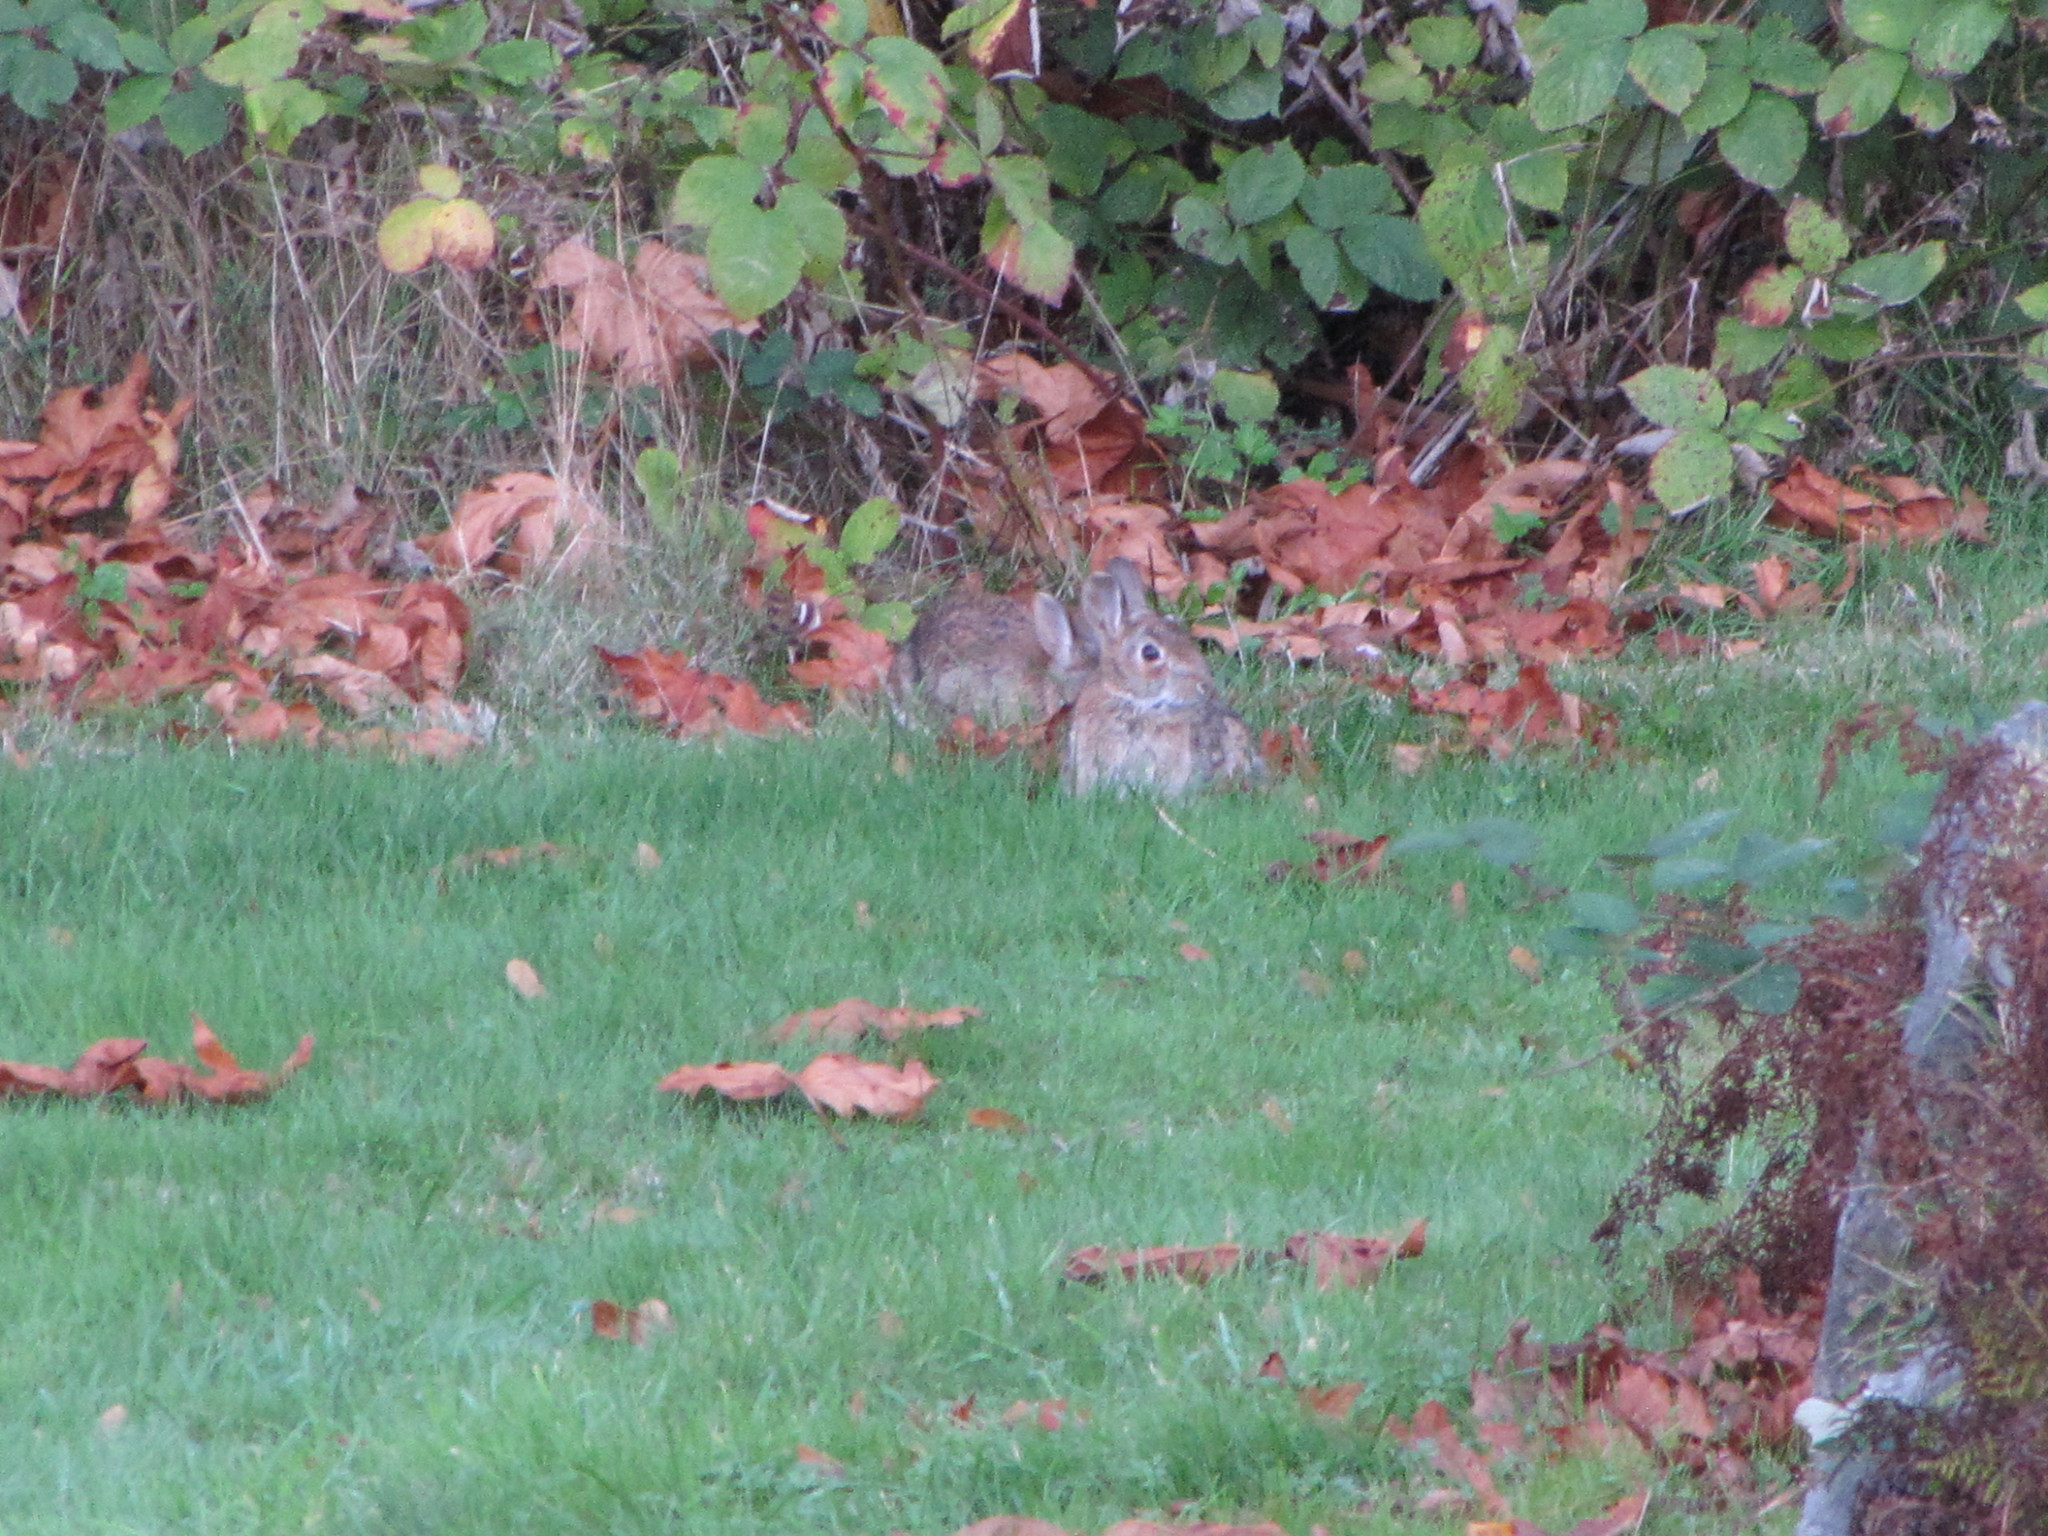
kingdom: Animalia
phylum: Chordata
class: Mammalia
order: Lagomorpha
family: Leporidae
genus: Sylvilagus
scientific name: Sylvilagus floridanus
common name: Eastern cottontail
